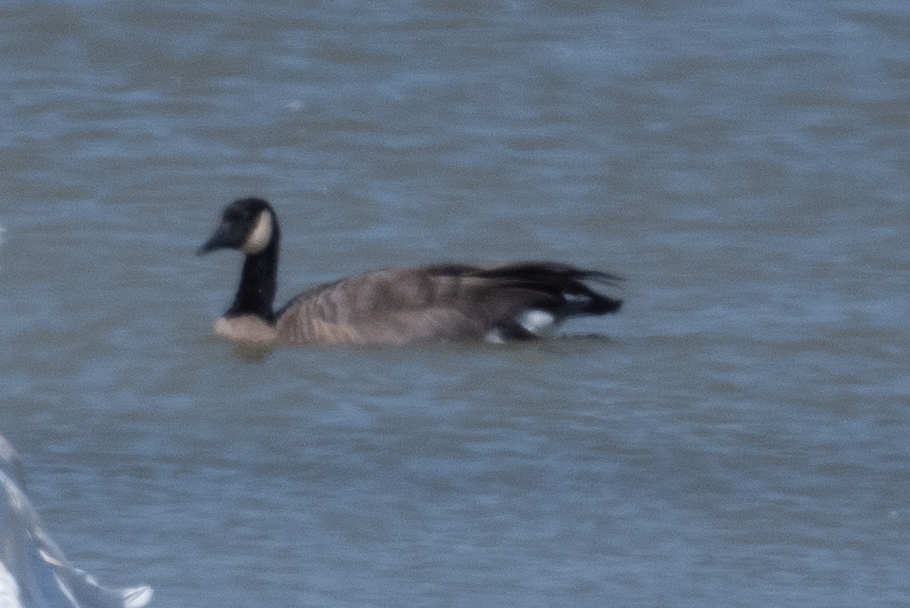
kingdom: Animalia
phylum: Chordata
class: Aves
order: Anseriformes
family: Anatidae
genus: Branta
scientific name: Branta canadensis
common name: Canada goose
